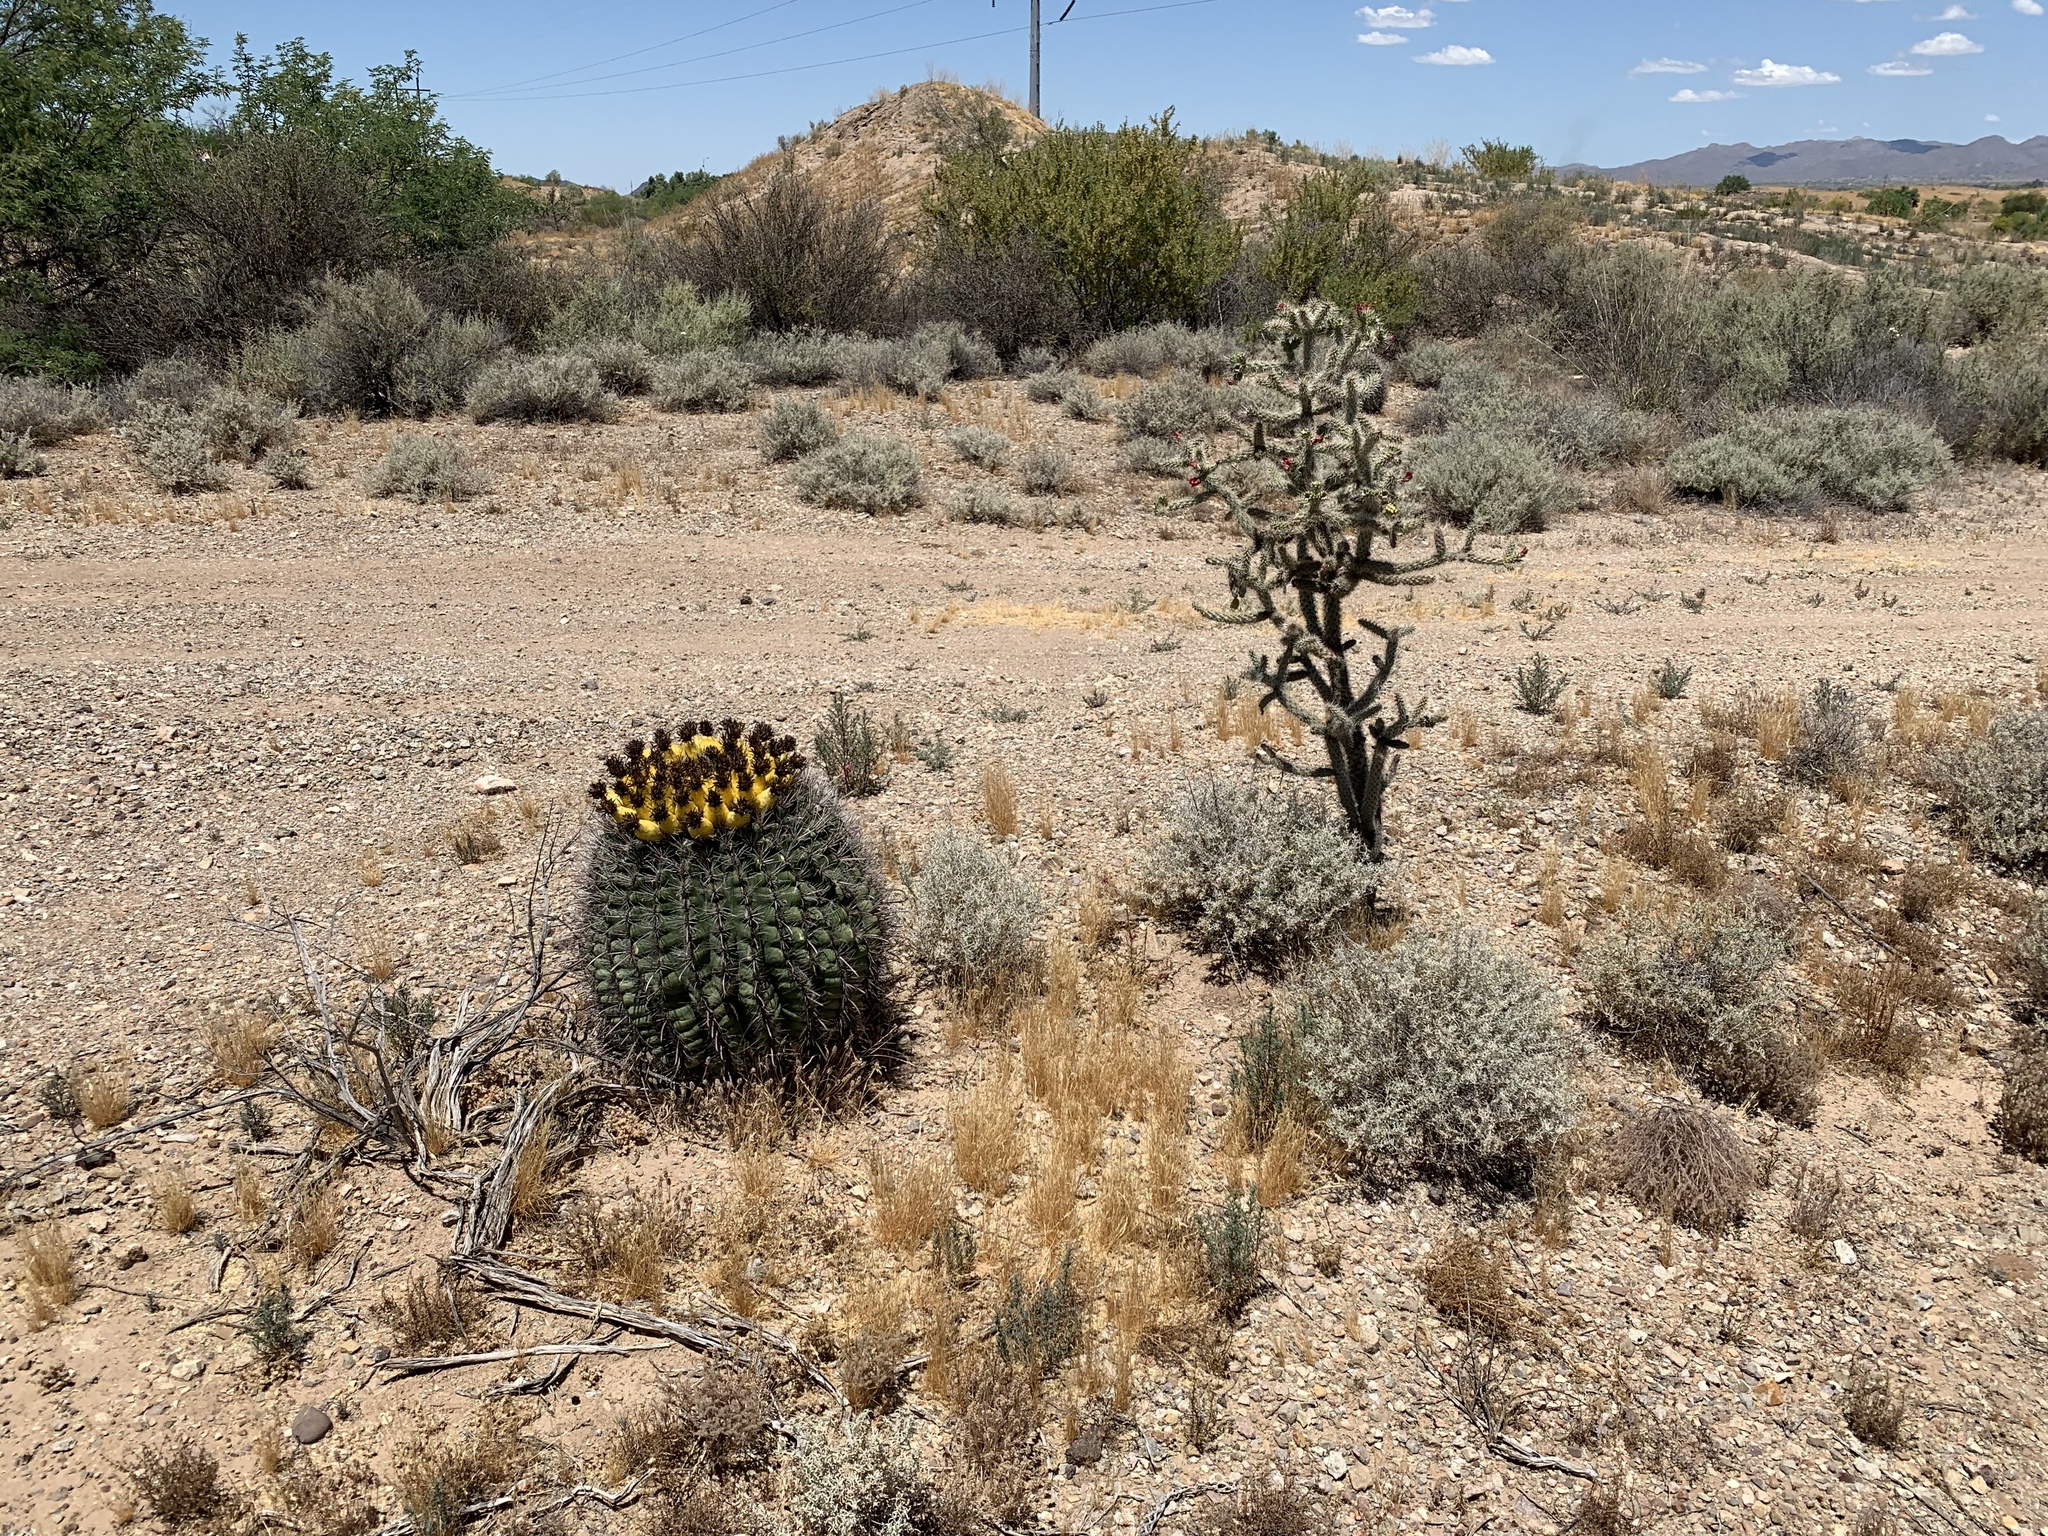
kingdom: Plantae
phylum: Tracheophyta
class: Magnoliopsida
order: Caryophyllales
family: Cactaceae
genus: Cylindropuntia
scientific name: Cylindropuntia imbricata
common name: Candelabrum cactus
